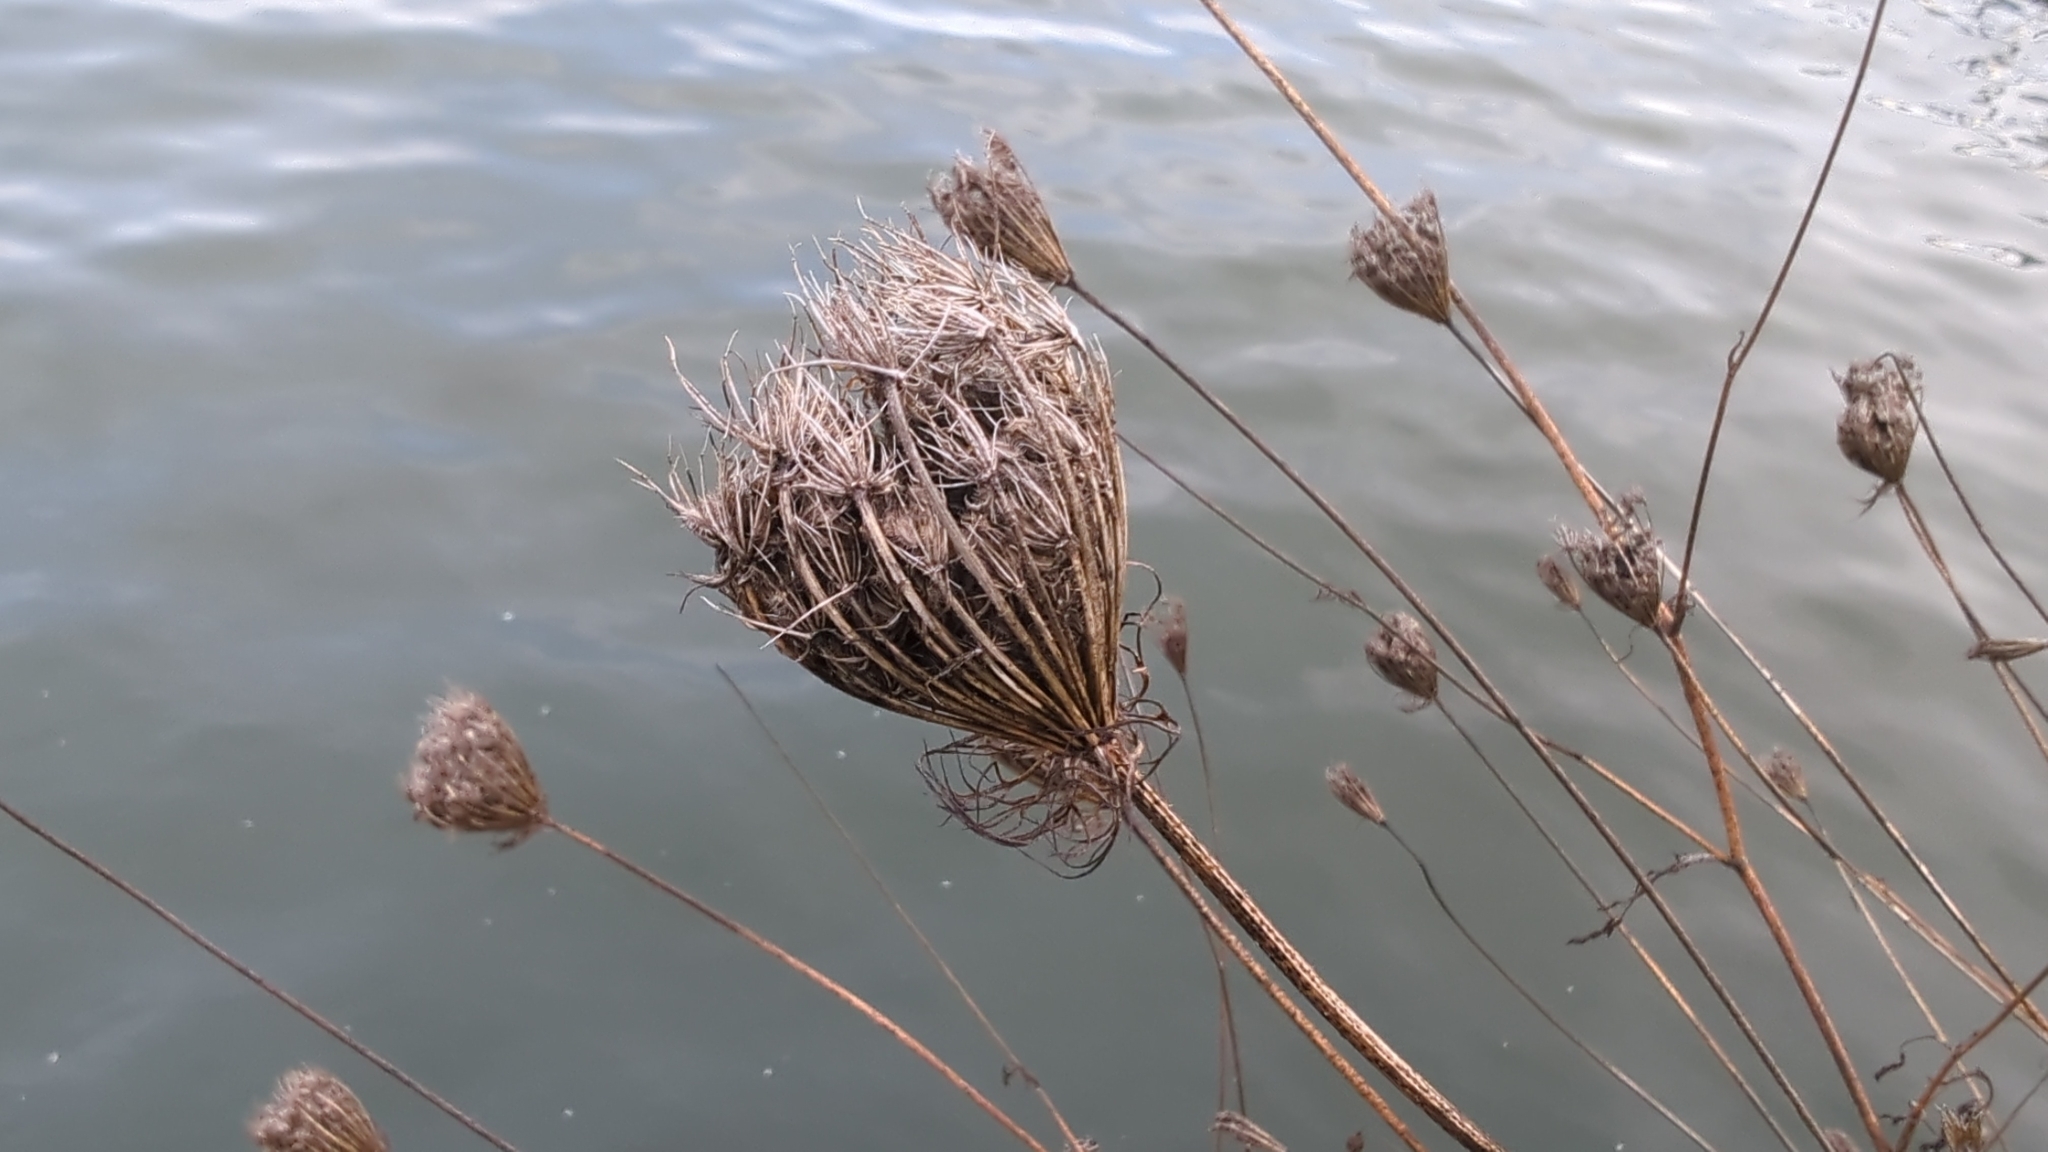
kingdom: Plantae
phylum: Tracheophyta
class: Magnoliopsida
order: Apiales
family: Apiaceae
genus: Daucus
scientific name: Daucus carota
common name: Wild carrot
